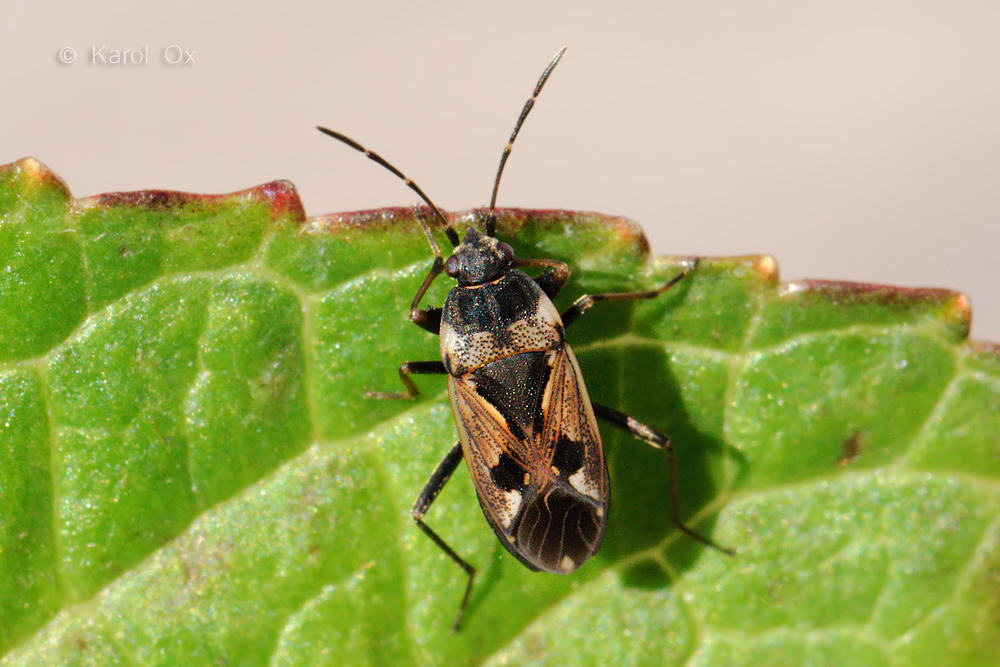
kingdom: Animalia
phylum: Arthropoda
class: Insecta
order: Hemiptera
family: Rhyparochromidae
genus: Rhyparochromus
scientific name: Rhyparochromus vulgaris
